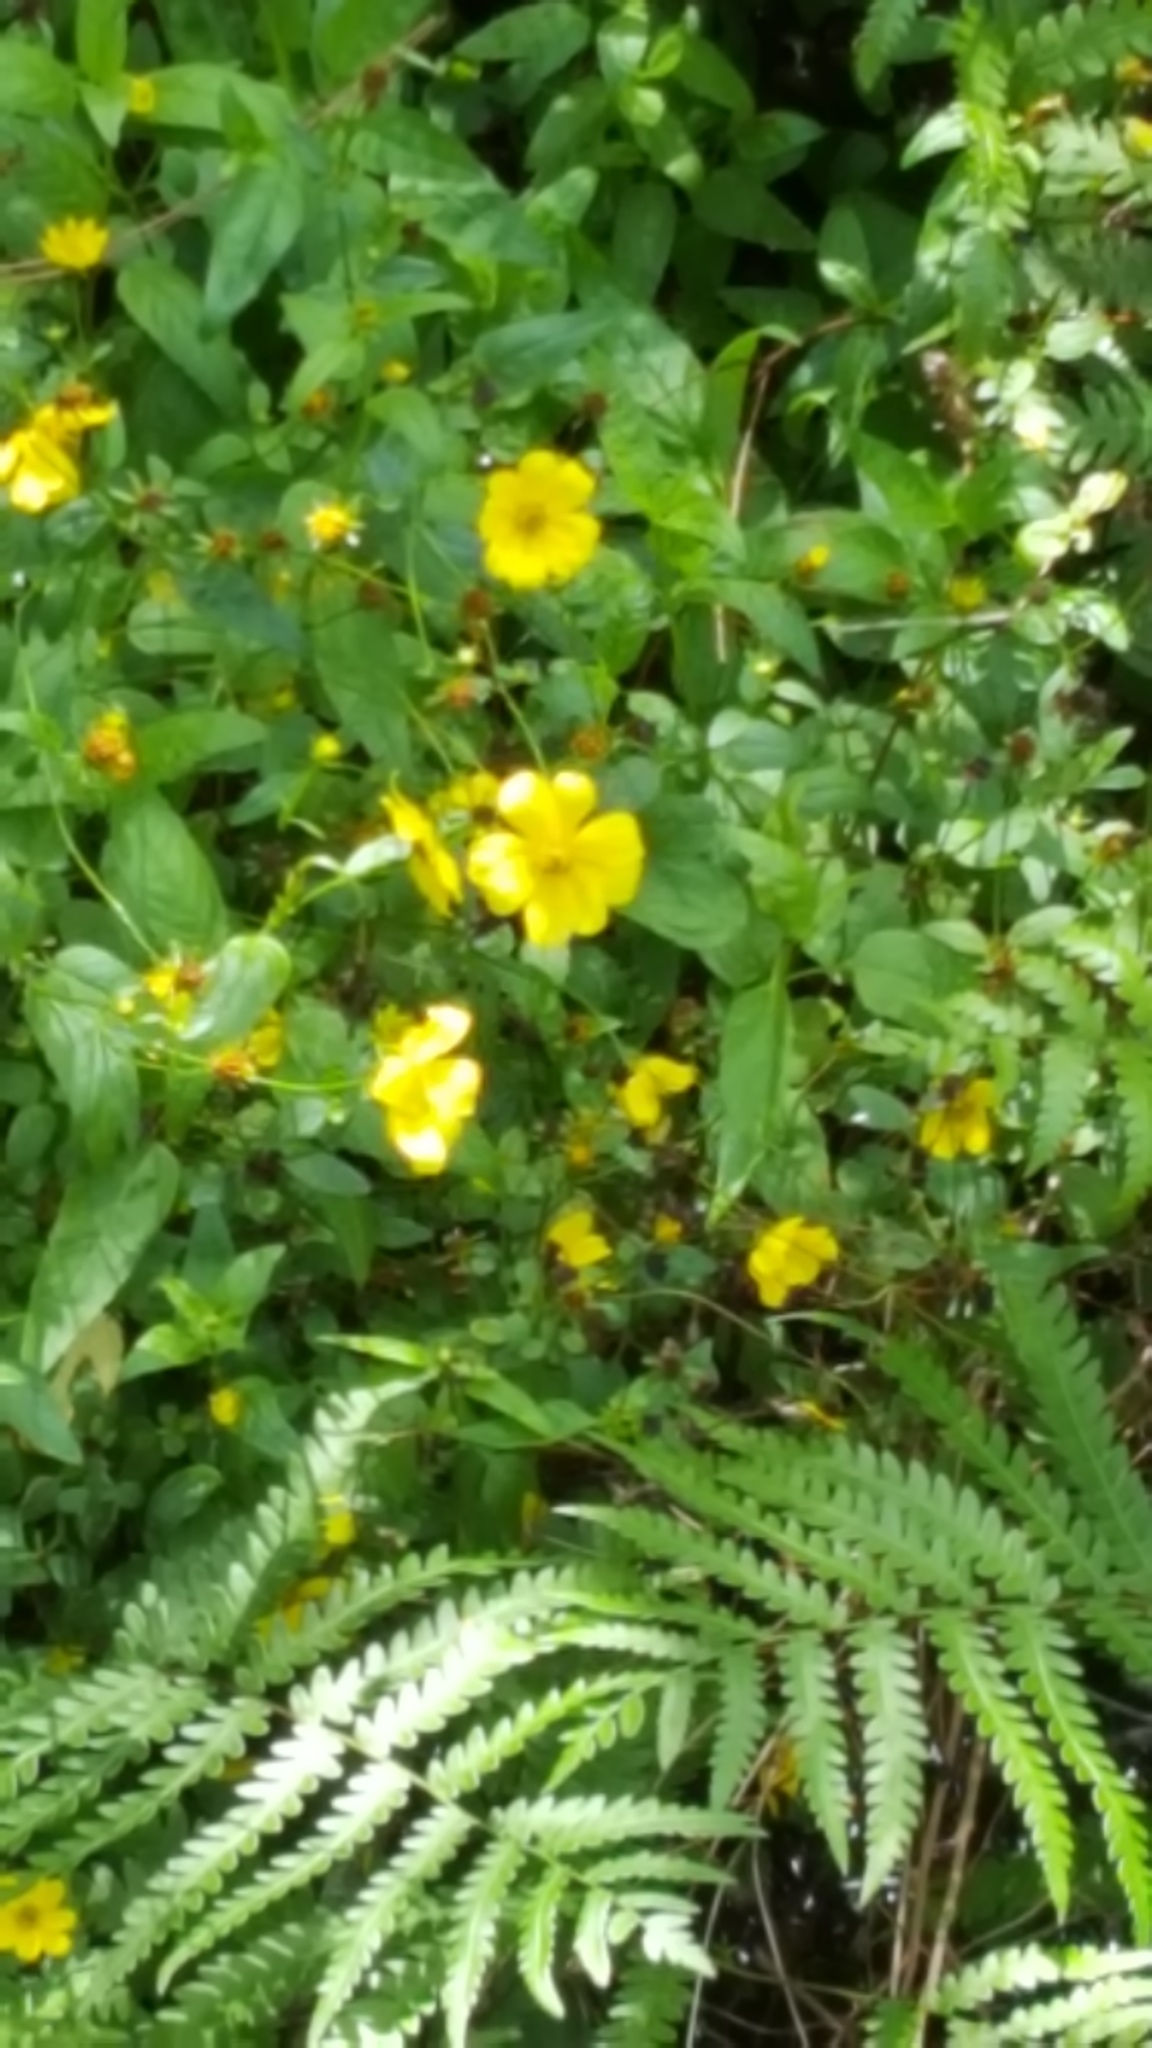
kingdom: Plantae
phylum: Tracheophyta
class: Magnoliopsida
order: Myrtales
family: Onagraceae
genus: Ludwigia
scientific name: Ludwigia peruviana
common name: Peruvian primrose-willow
